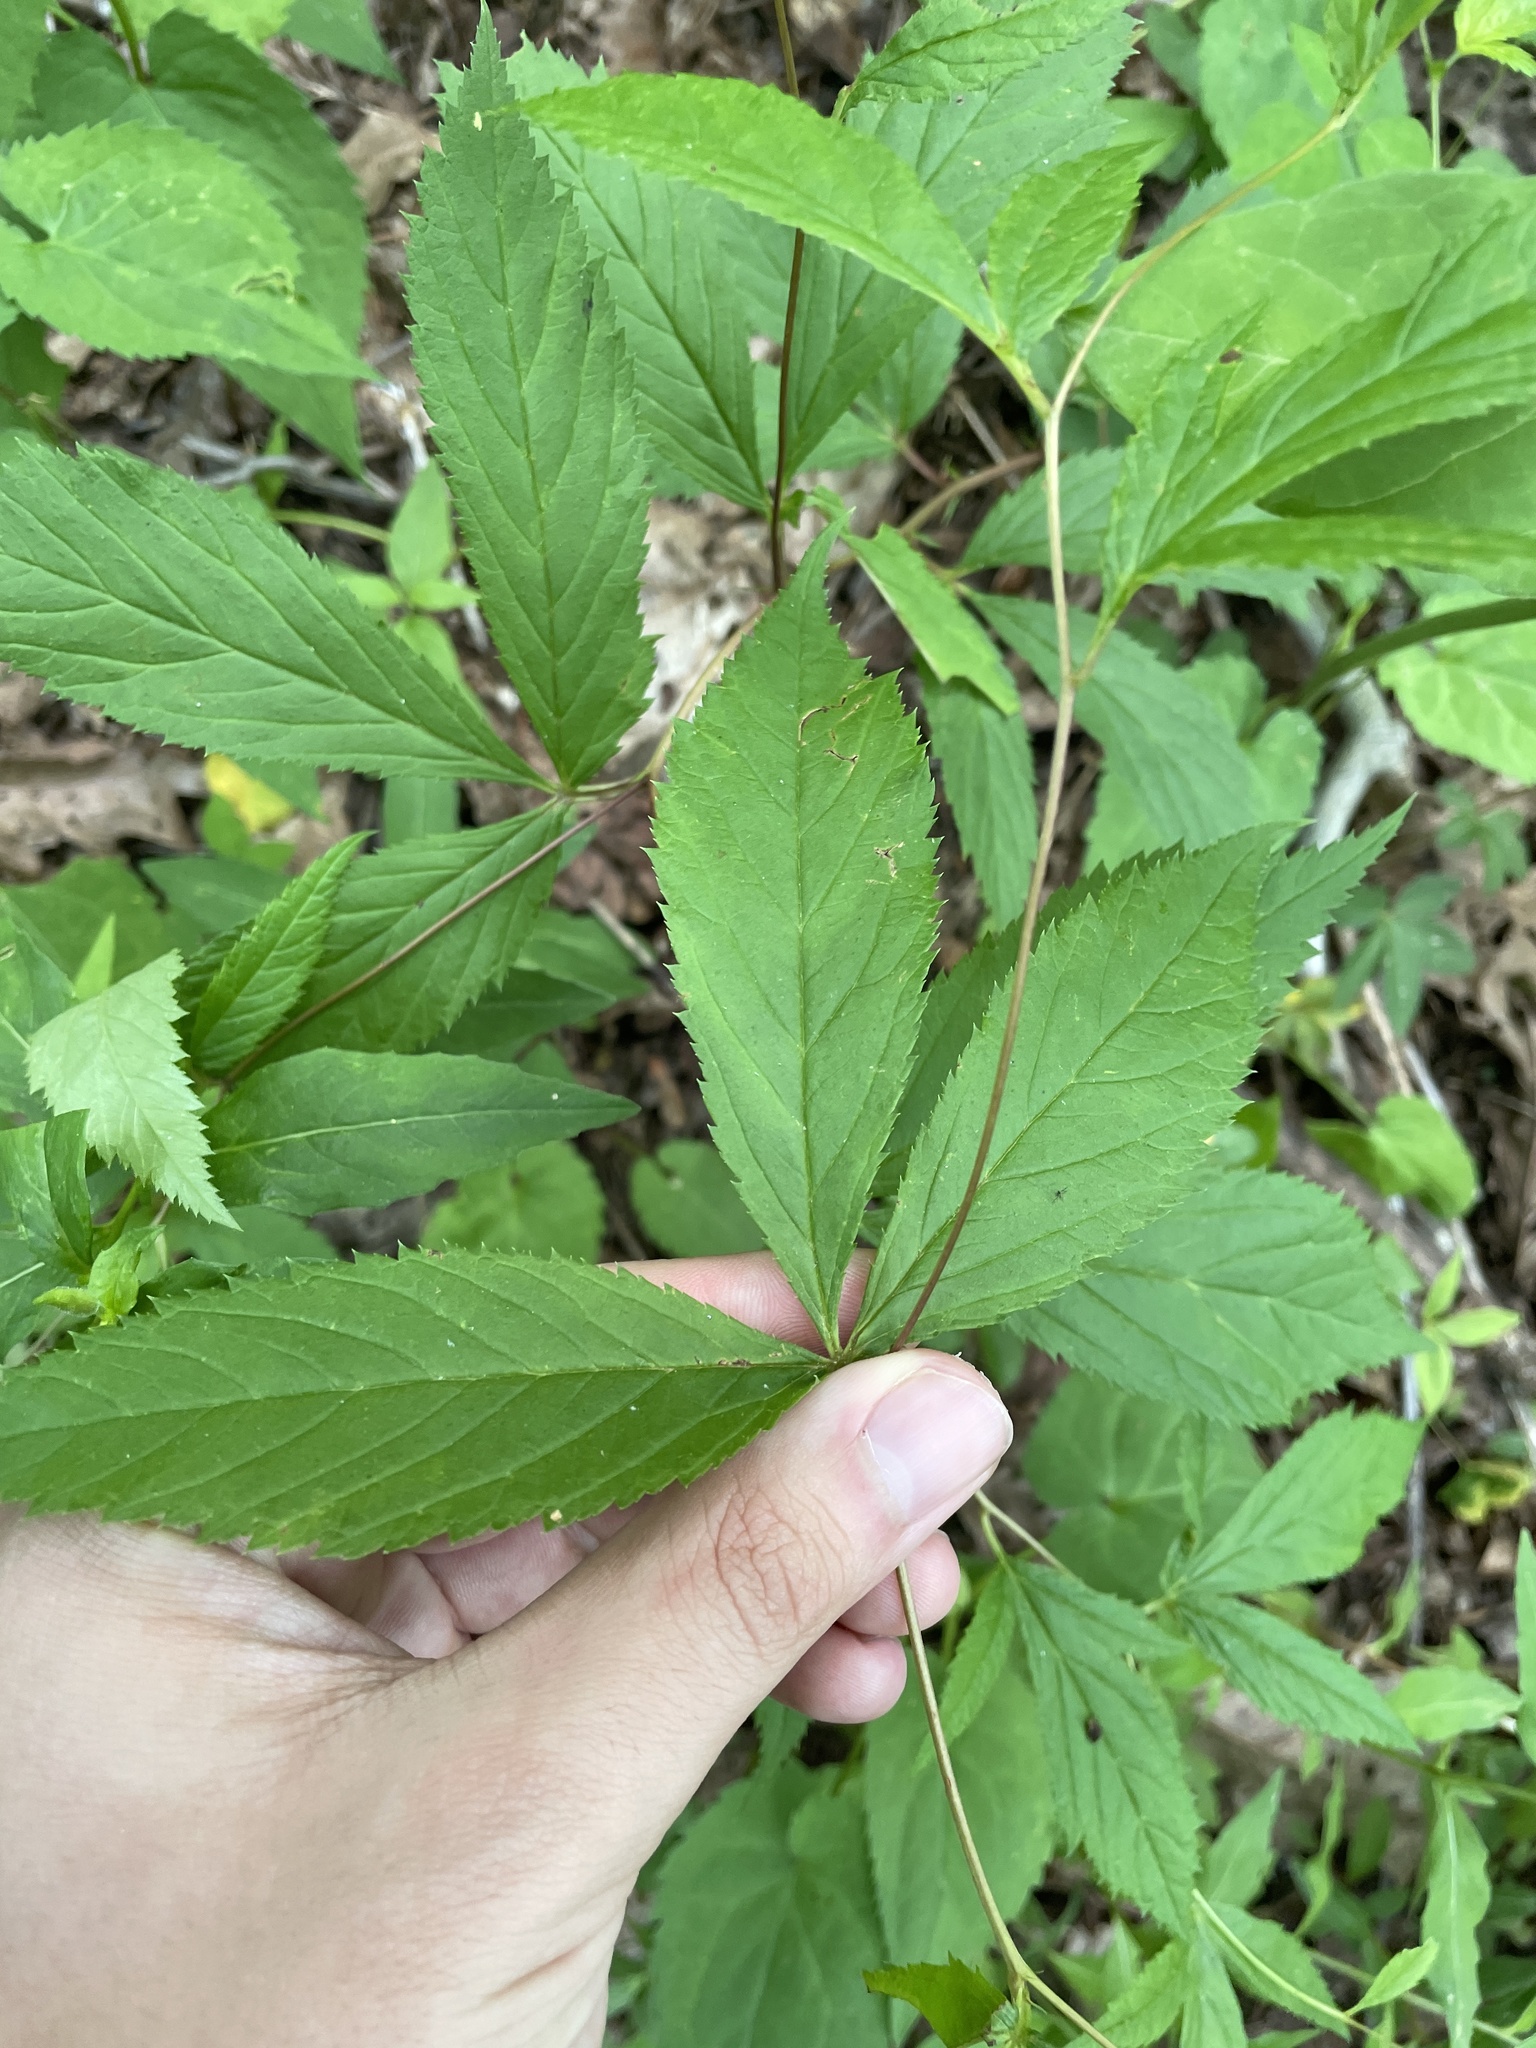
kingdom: Plantae
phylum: Tracheophyta
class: Magnoliopsida
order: Rosales
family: Rosaceae
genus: Gillenia
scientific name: Gillenia trifoliata
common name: Bowman's-root
